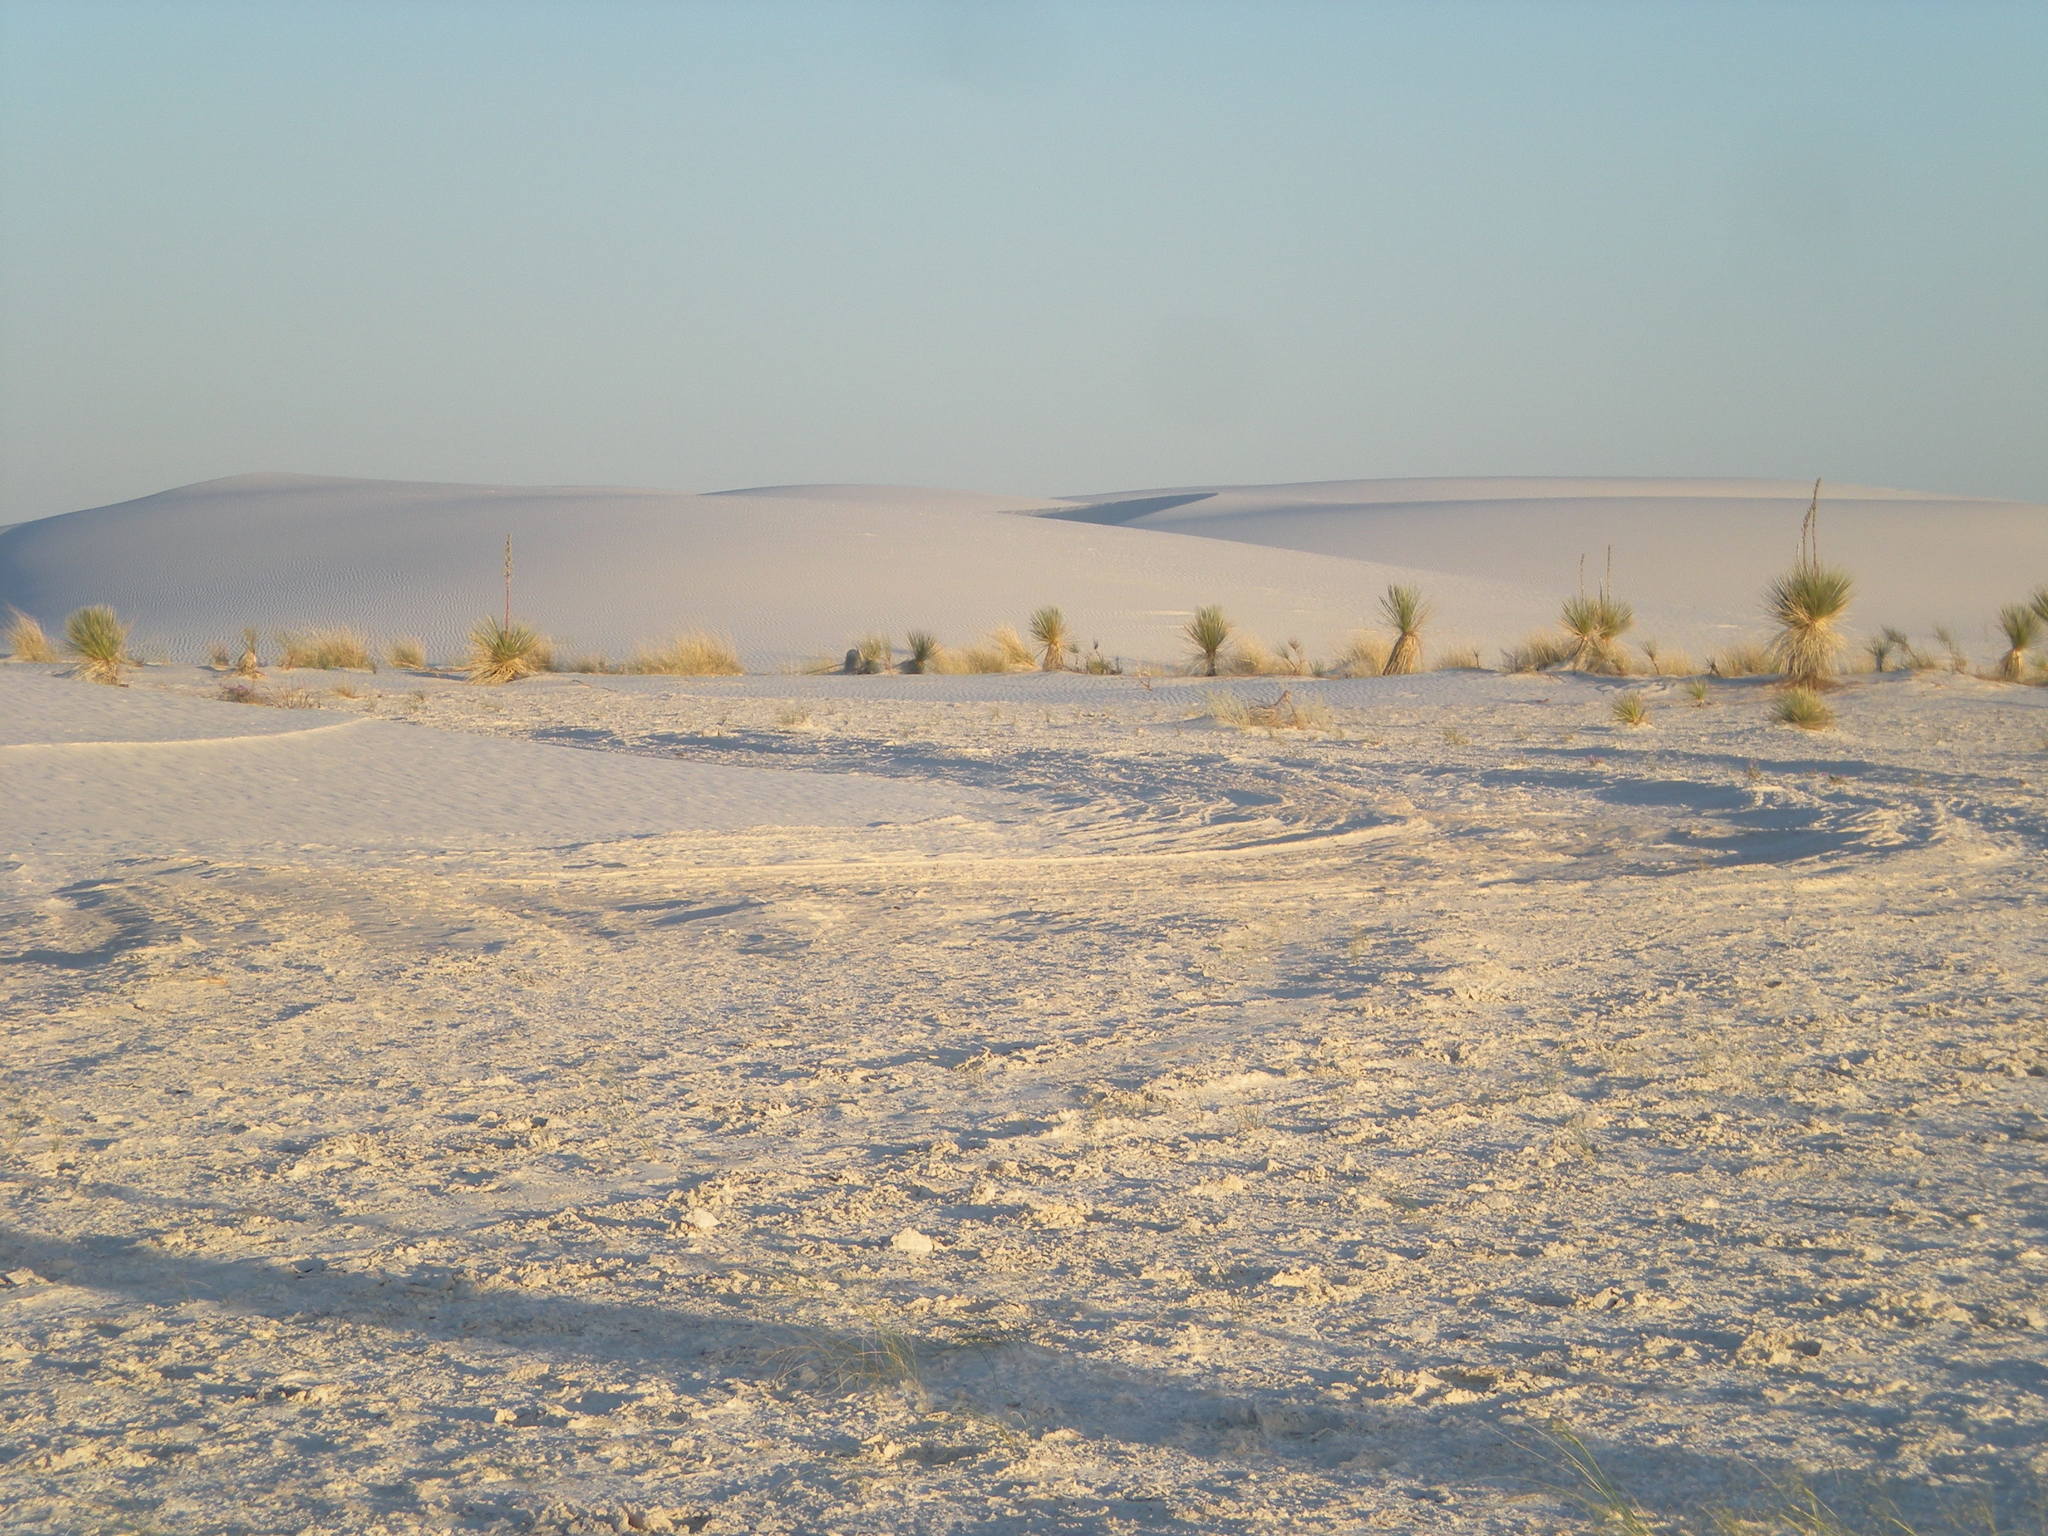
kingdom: Plantae
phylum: Tracheophyta
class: Liliopsida
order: Asparagales
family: Asparagaceae
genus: Yucca
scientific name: Yucca elata
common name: Palmella
